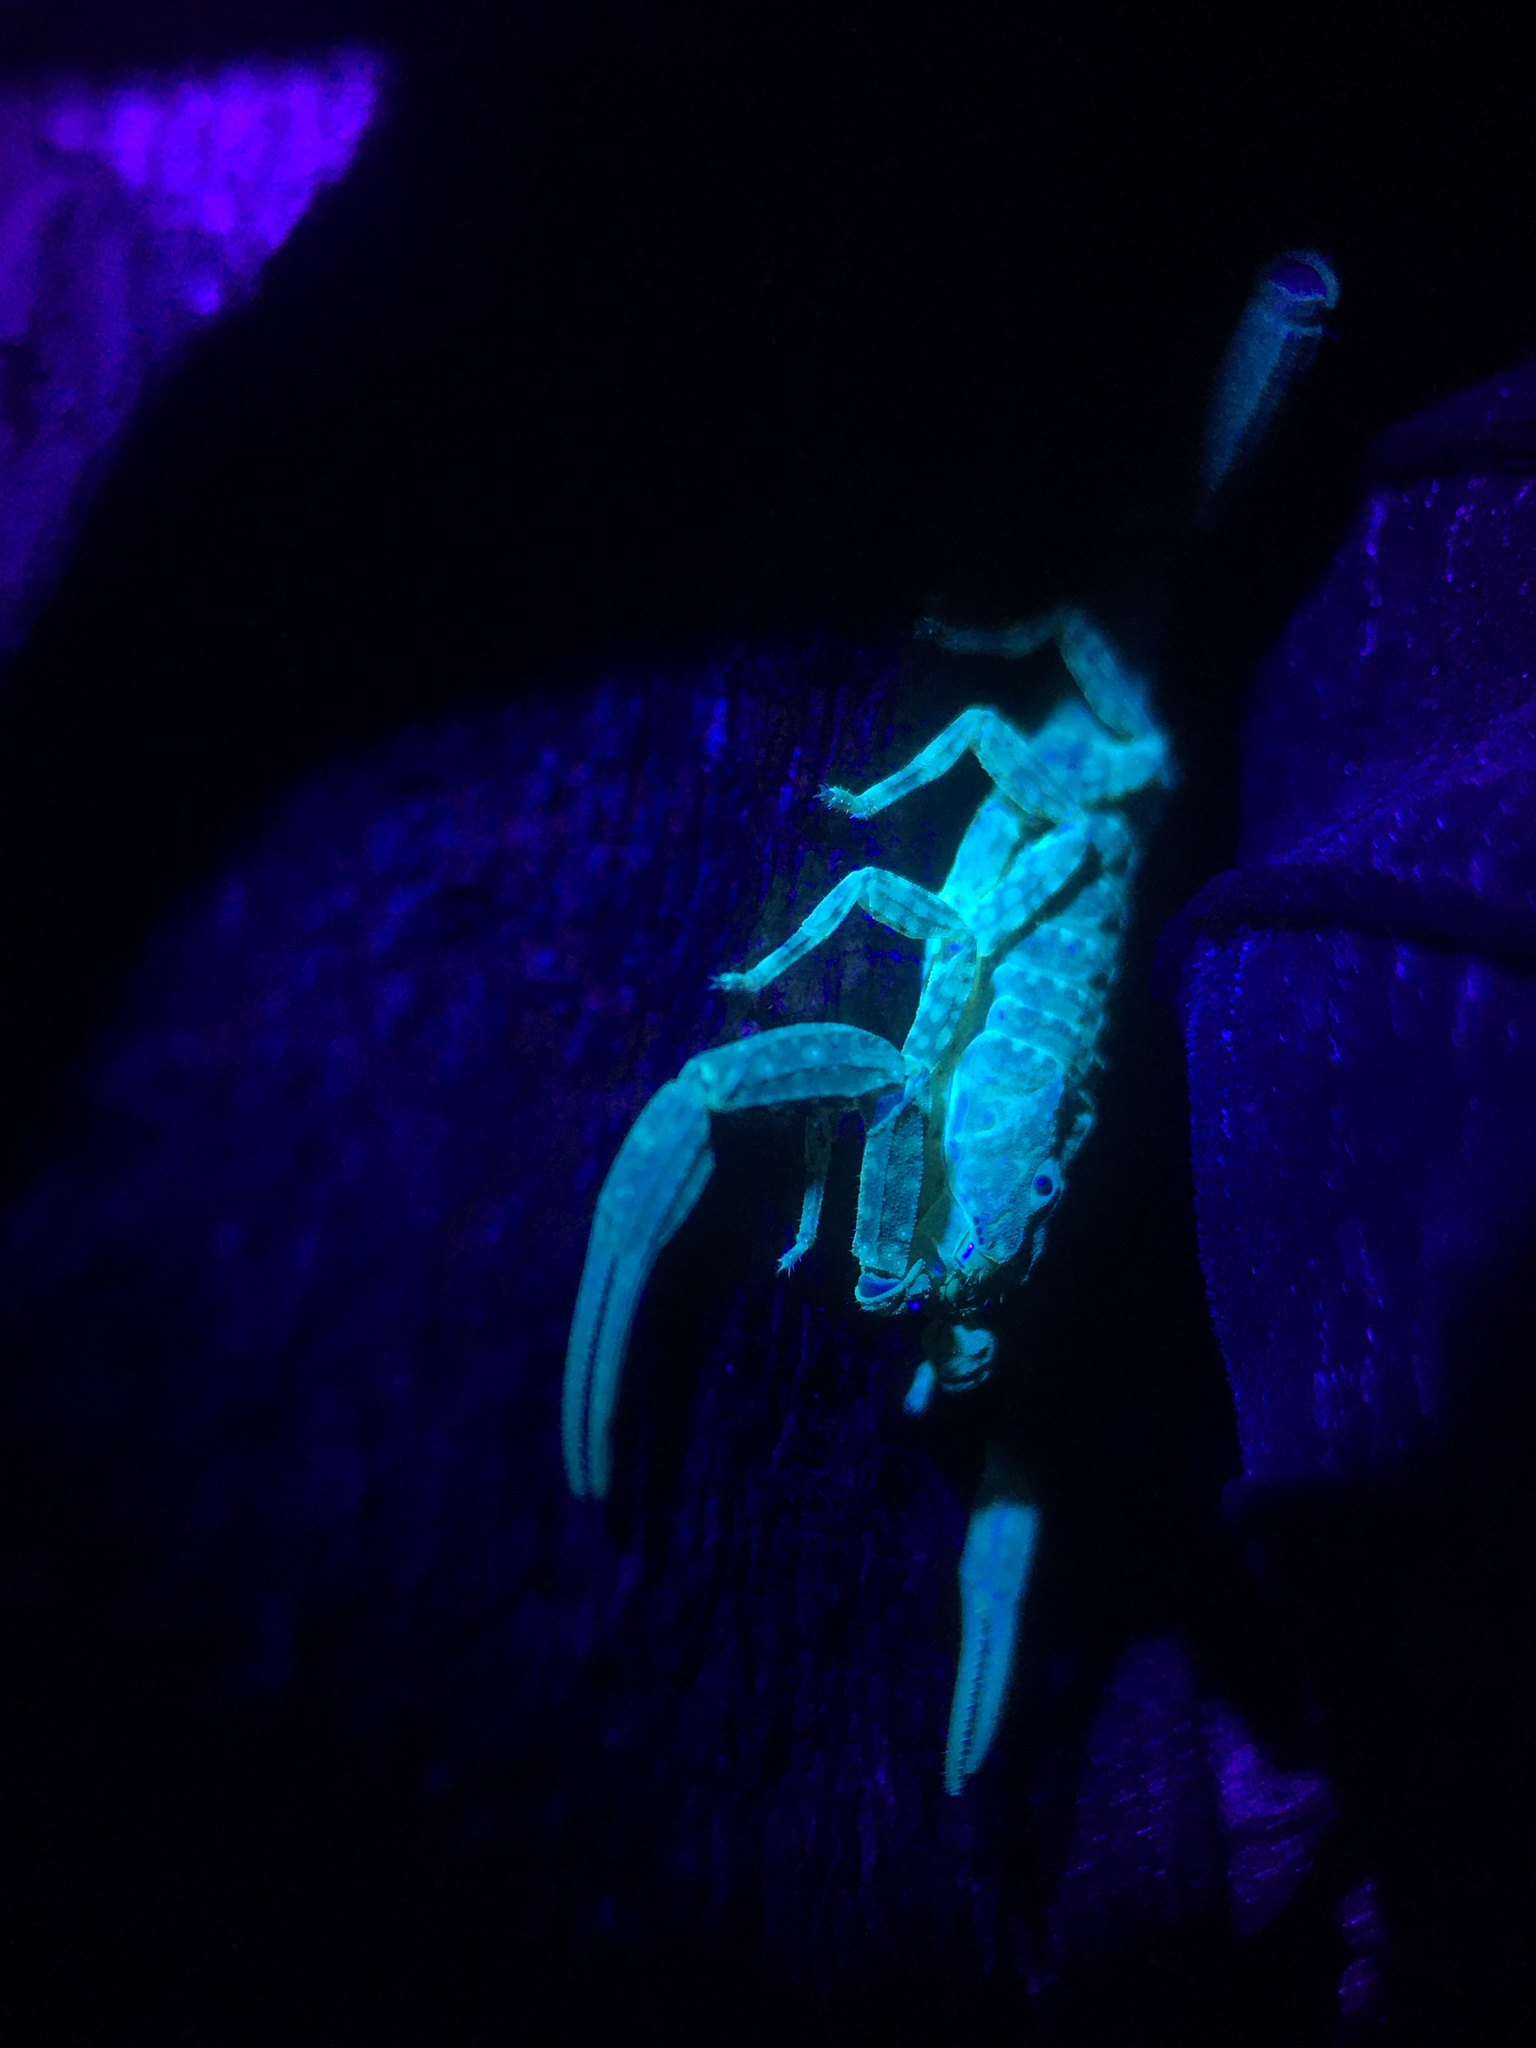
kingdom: Animalia
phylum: Arthropoda
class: Arachnida
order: Scorpiones
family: Buthidae
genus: Tityus
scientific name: Tityus pusillus
